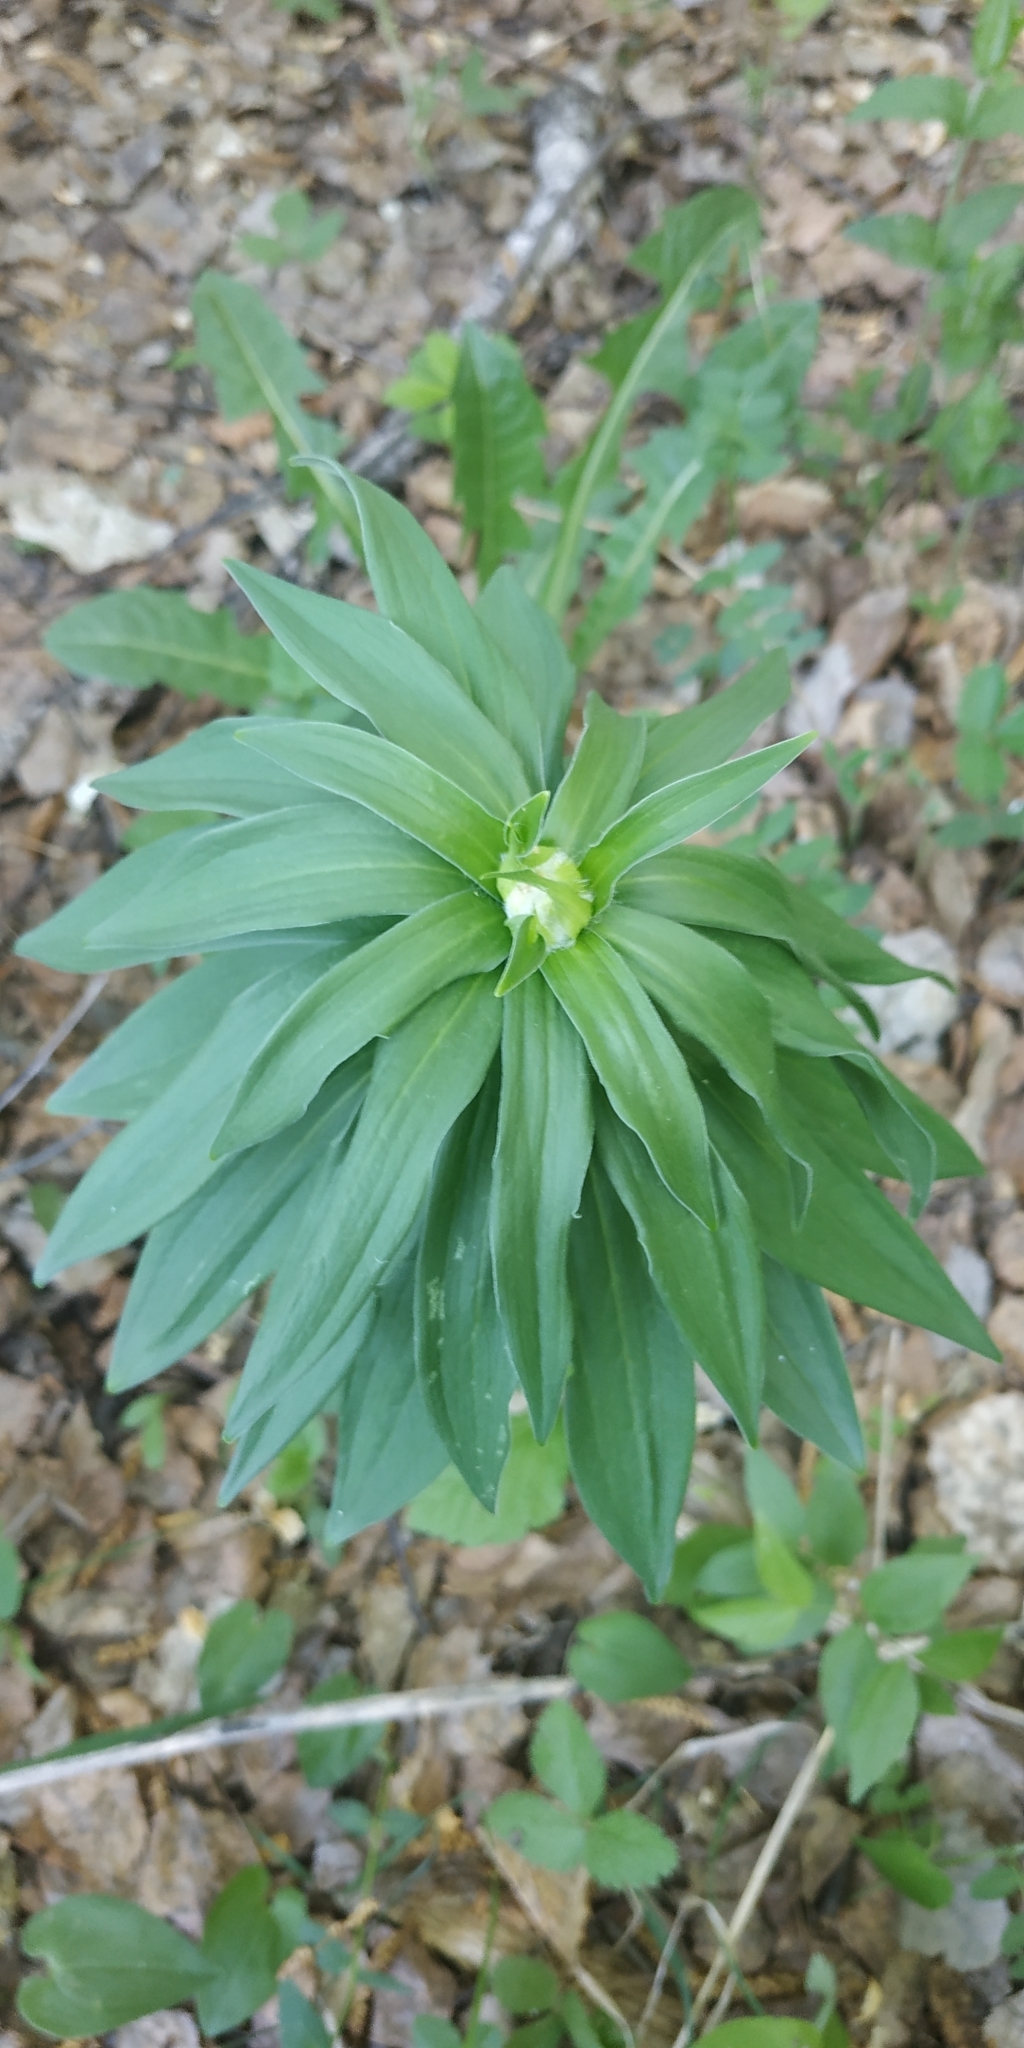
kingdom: Plantae
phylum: Tracheophyta
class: Liliopsida
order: Liliales
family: Liliaceae
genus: Lilium
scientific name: Lilium martagon
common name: Martagon lily
